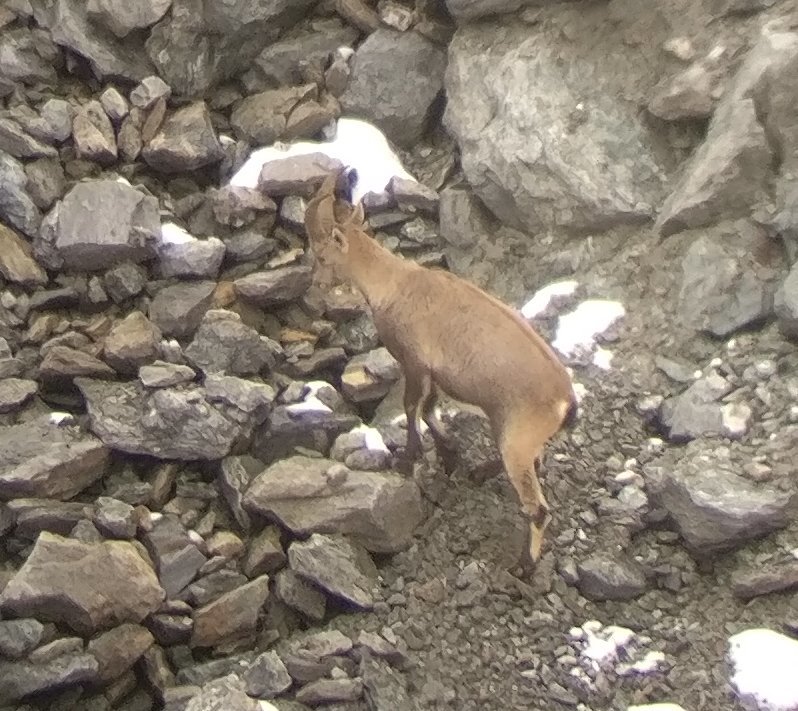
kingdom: Animalia
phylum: Chordata
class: Mammalia
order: Artiodactyla
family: Bovidae
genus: Capra
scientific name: Capra ibex
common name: Alpine ibex
